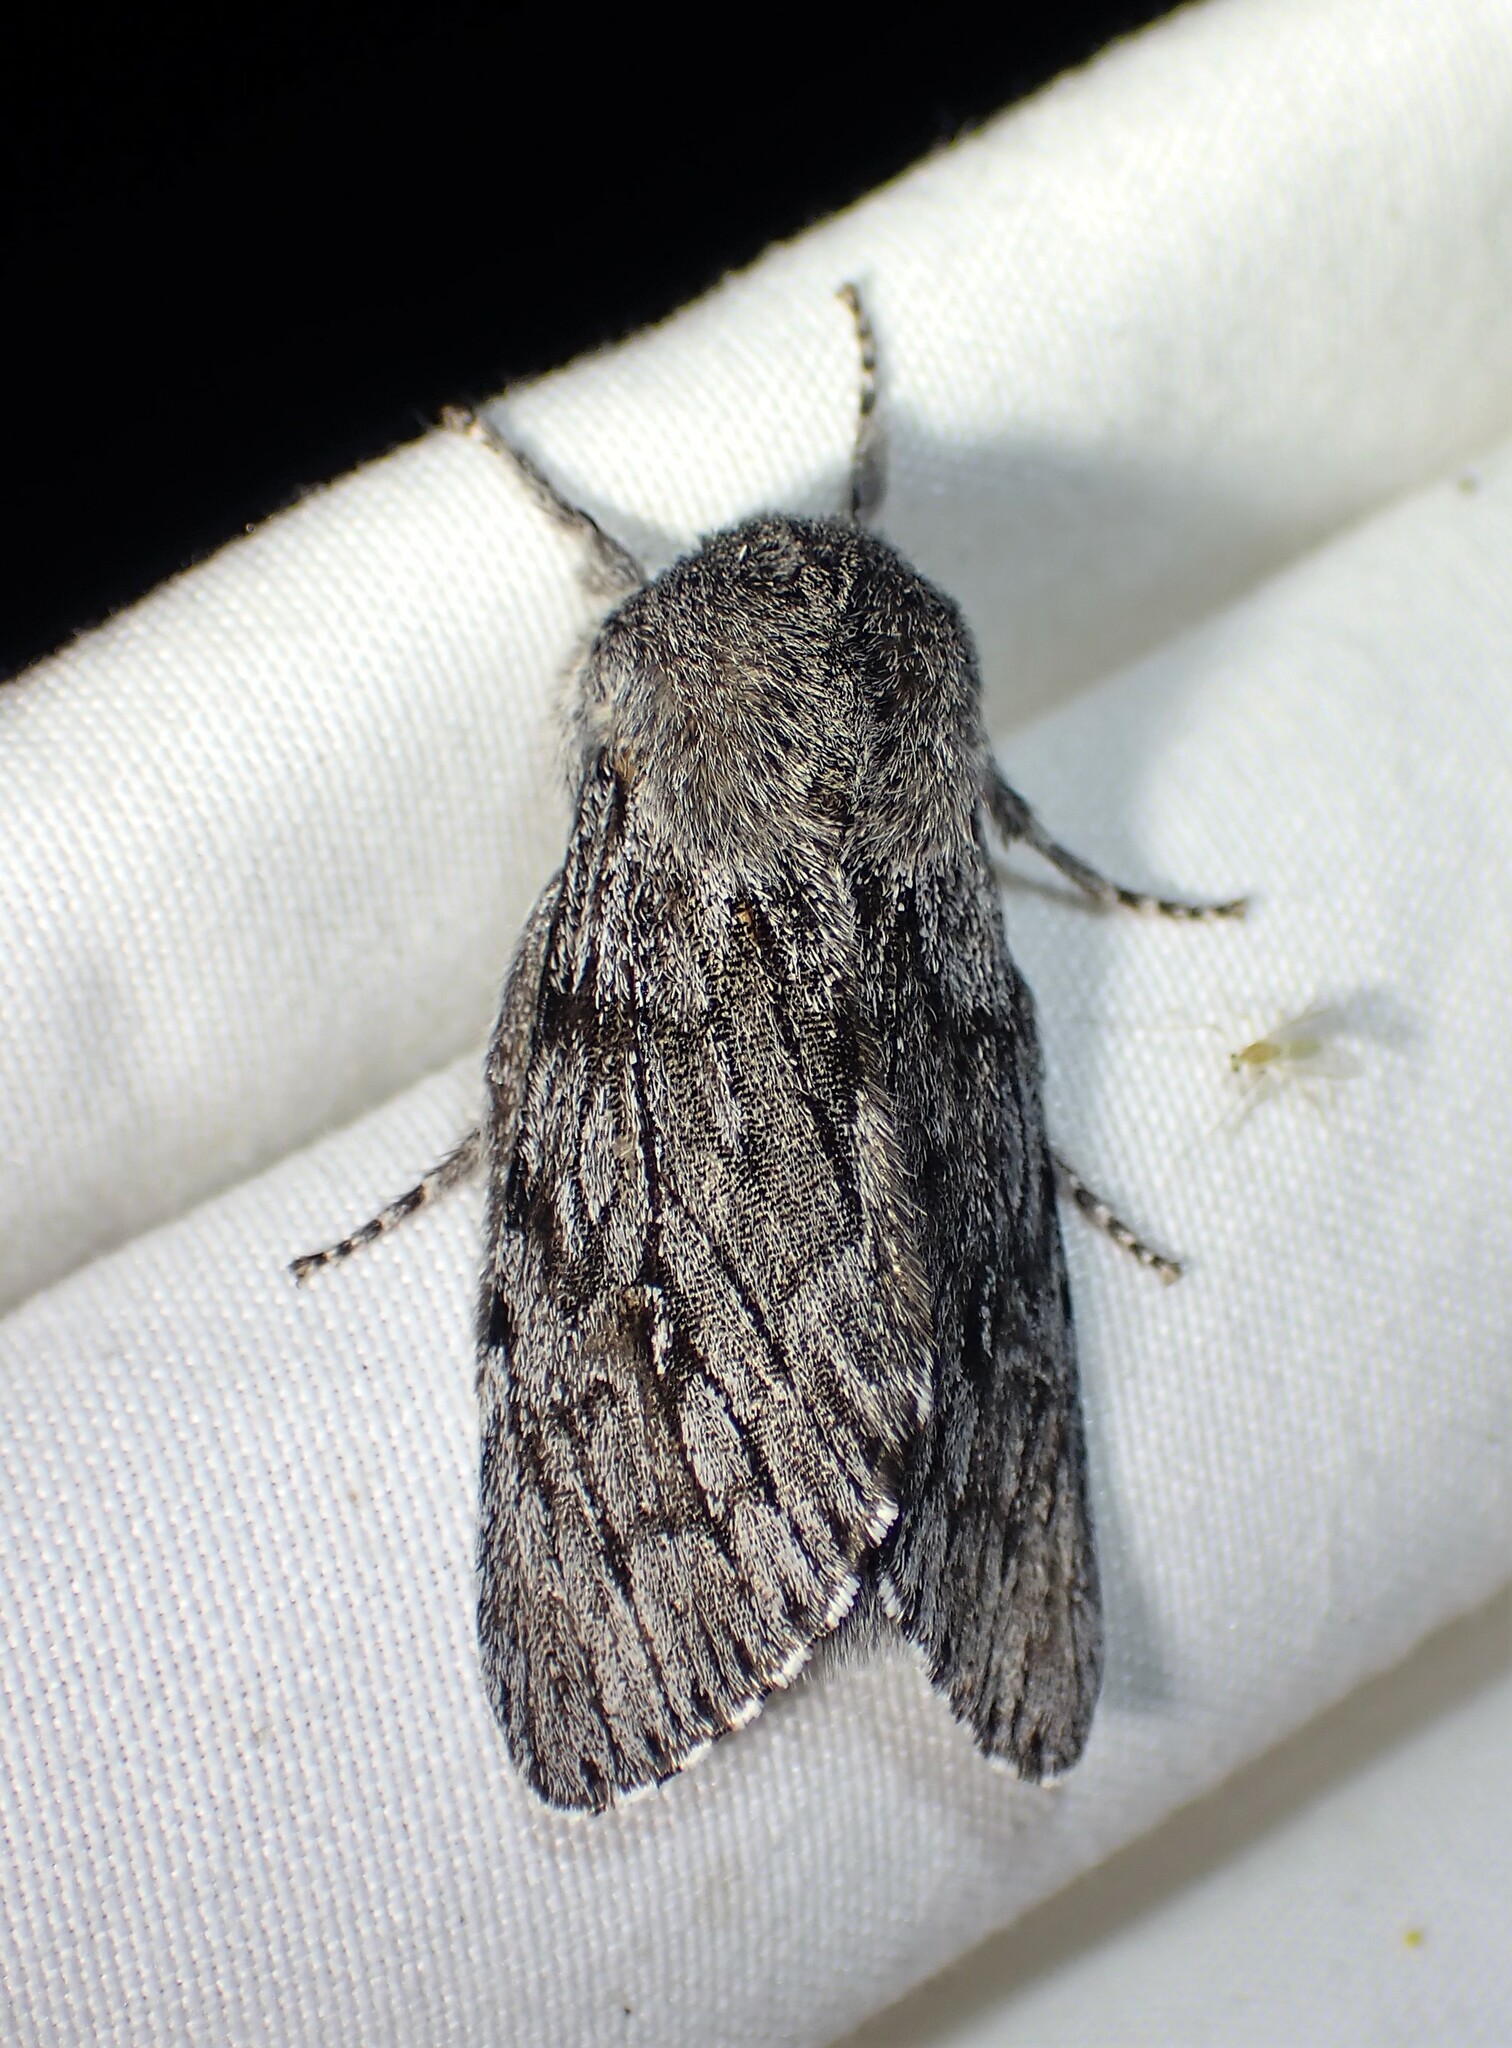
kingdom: Animalia
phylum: Arthropoda
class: Insecta
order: Lepidoptera
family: Noctuidae
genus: Brachionycha
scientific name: Brachionycha borealis
